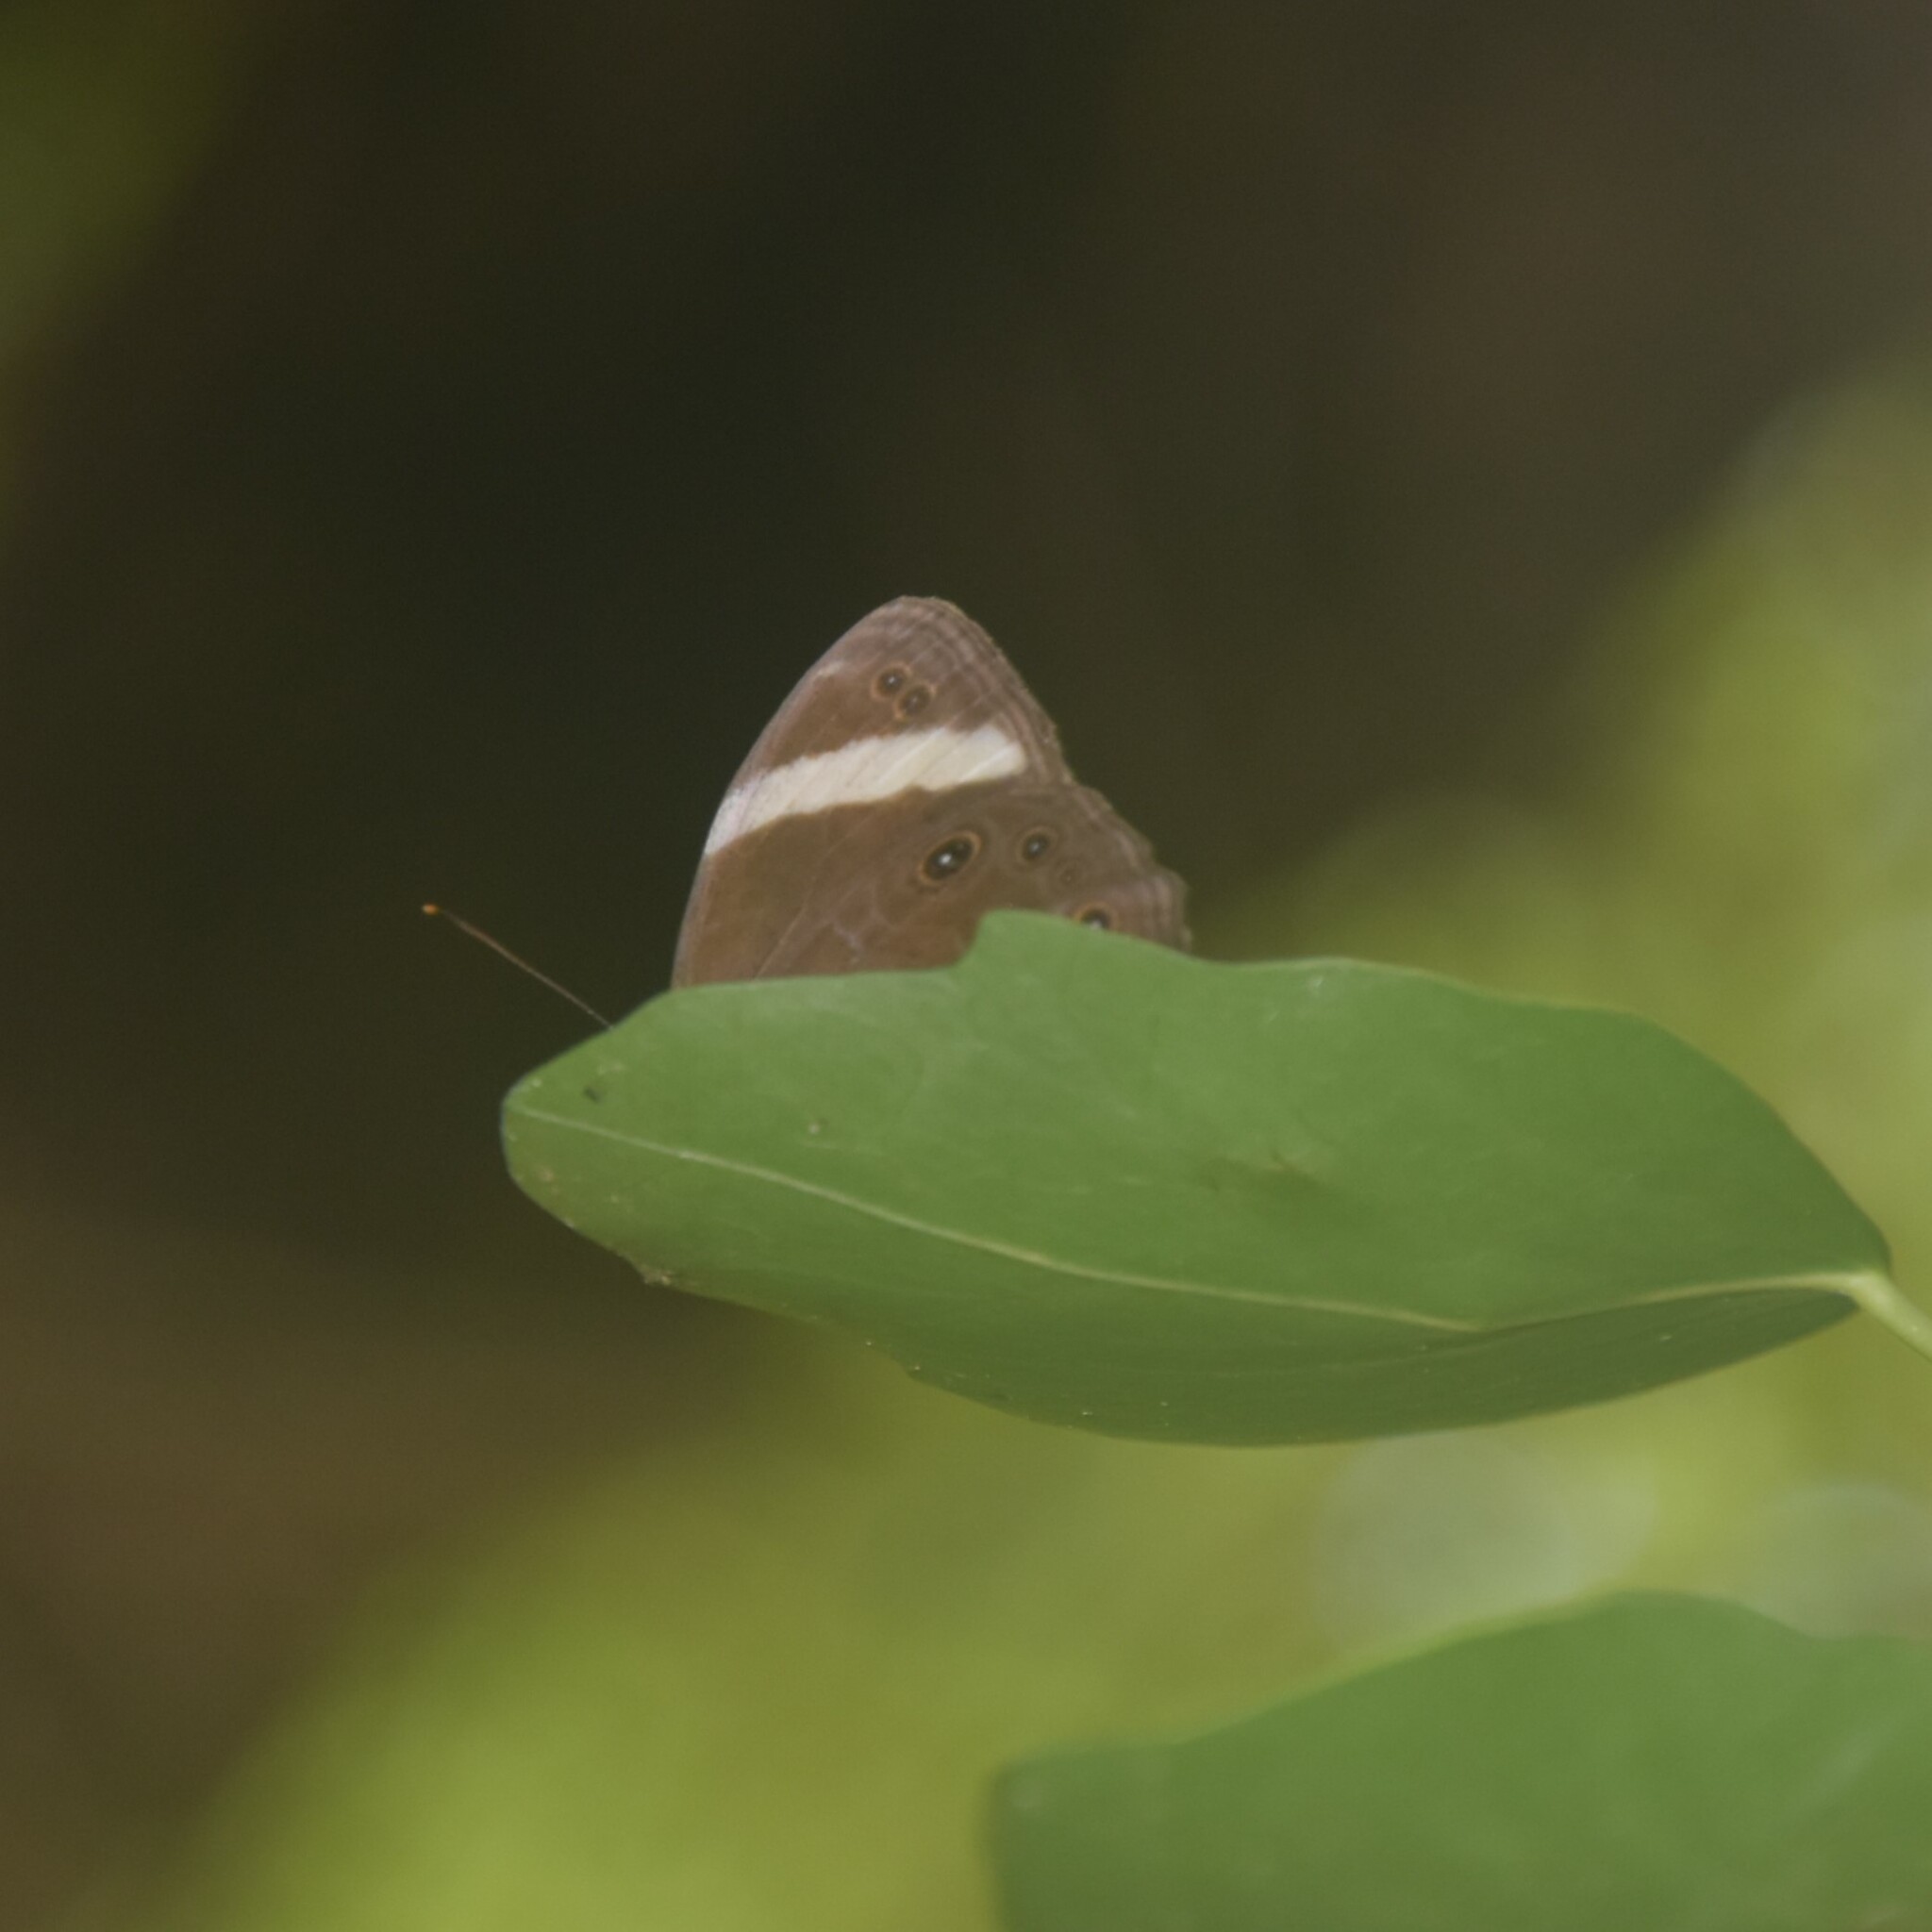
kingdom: Animalia
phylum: Arthropoda
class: Insecta
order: Lepidoptera
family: Nymphalidae
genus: Lethe
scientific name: Lethe verma
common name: Straight-banded treebrown
